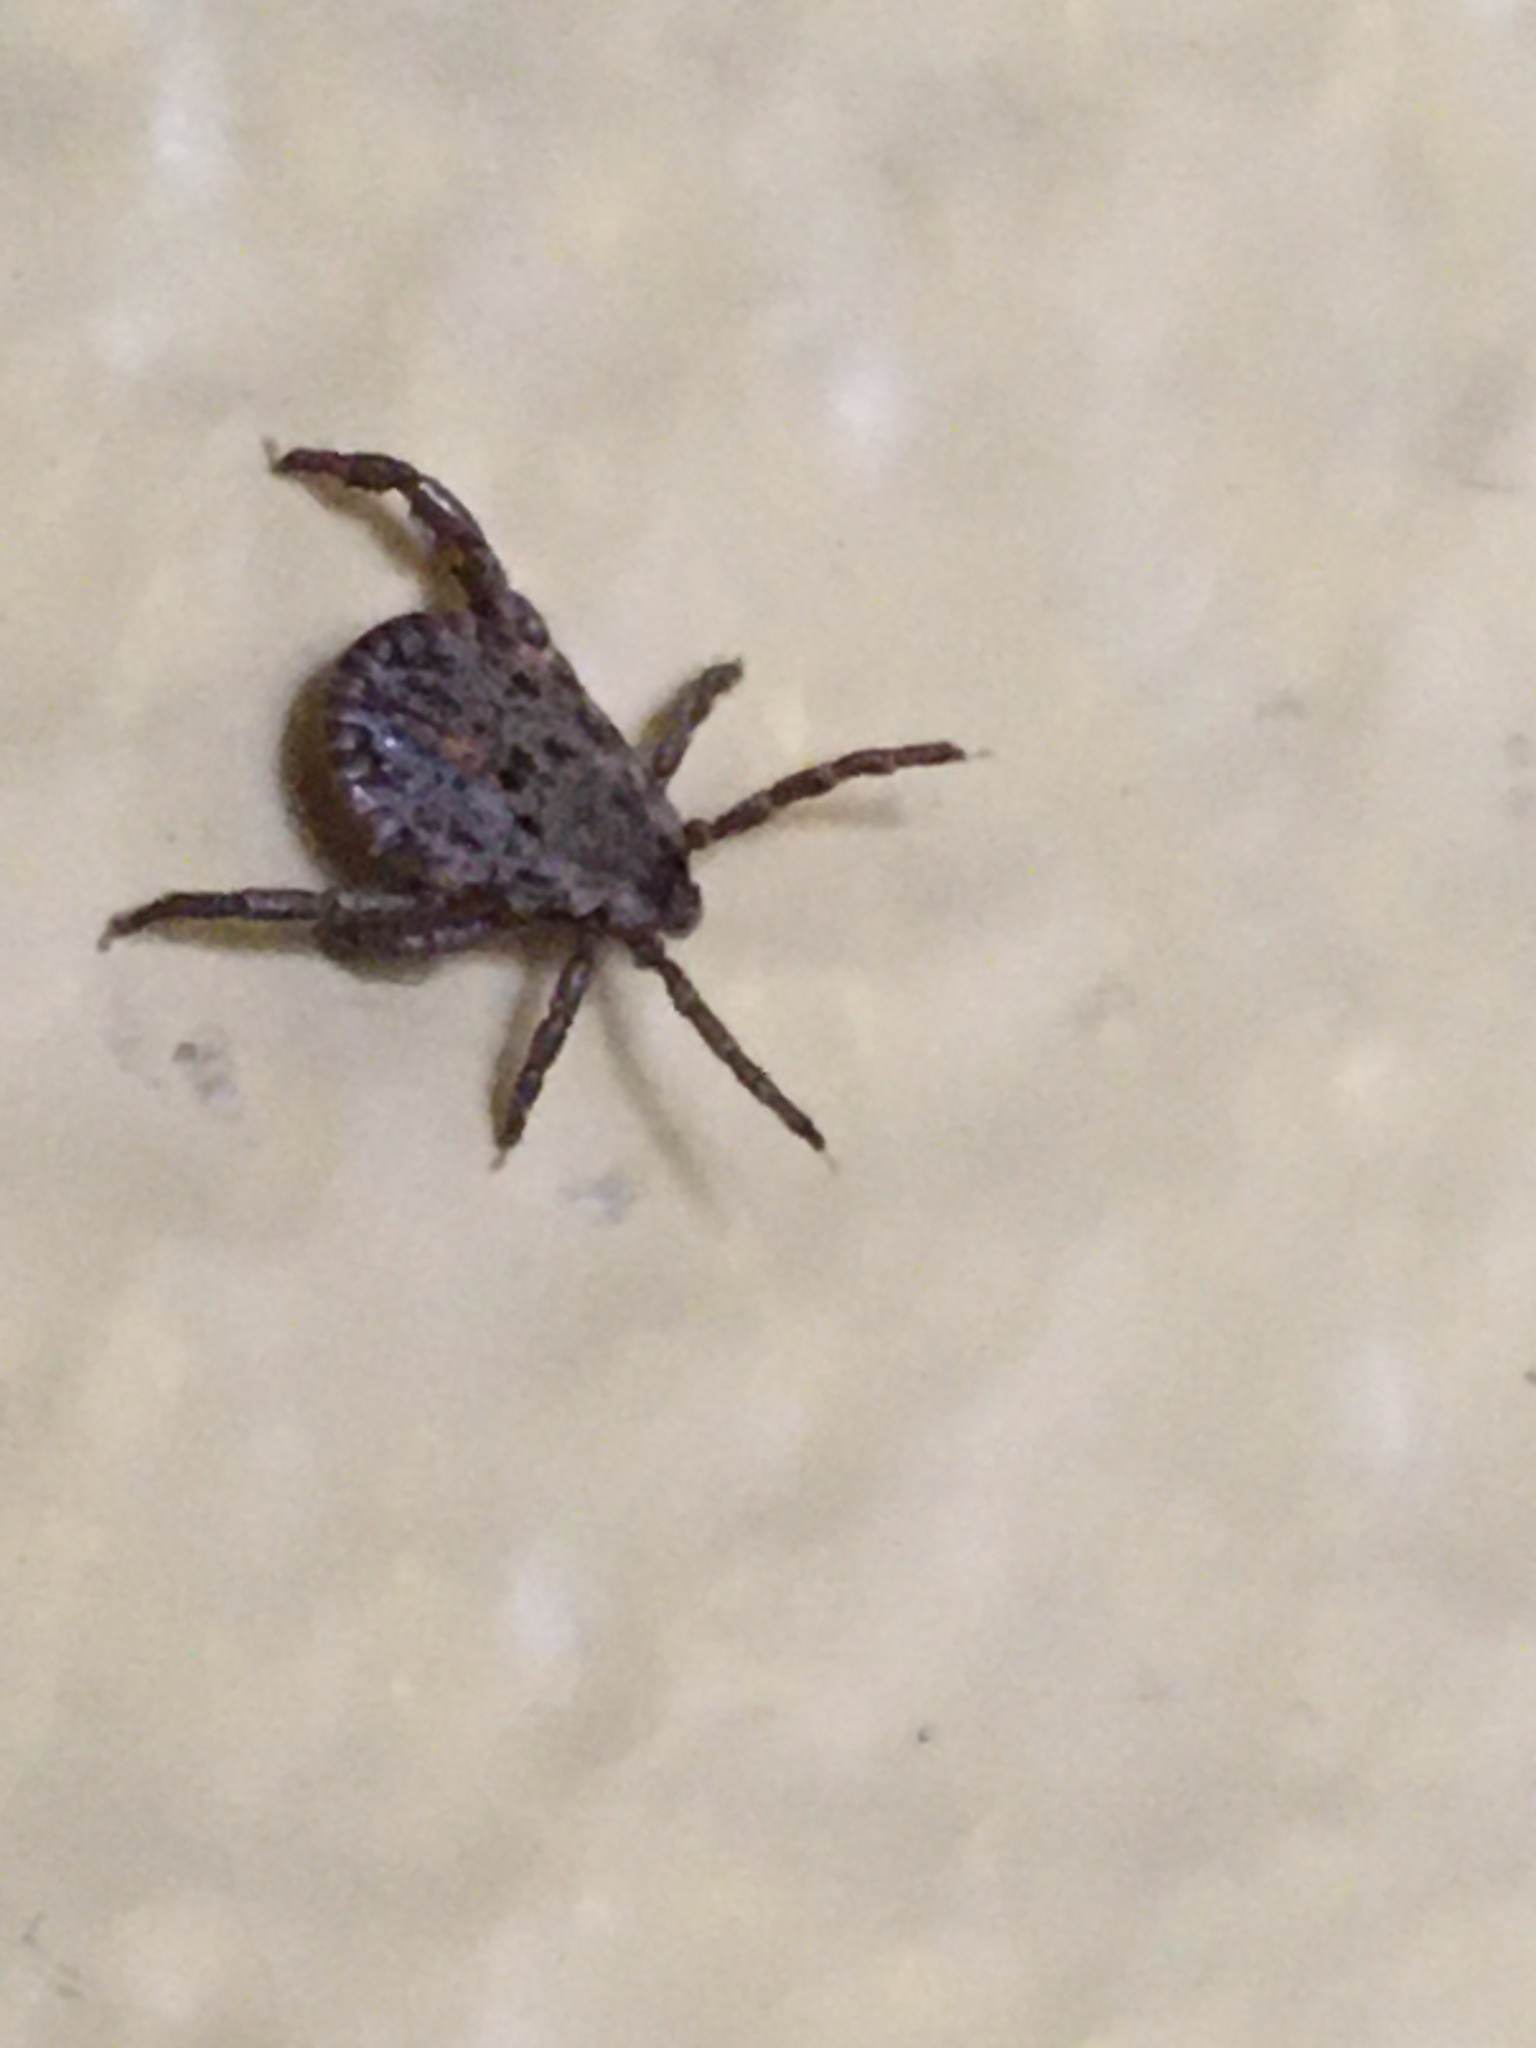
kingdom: Animalia
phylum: Arthropoda
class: Arachnida
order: Ixodida
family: Ixodidae
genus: Dermacentor
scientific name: Dermacentor occidentalis
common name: Net tick
